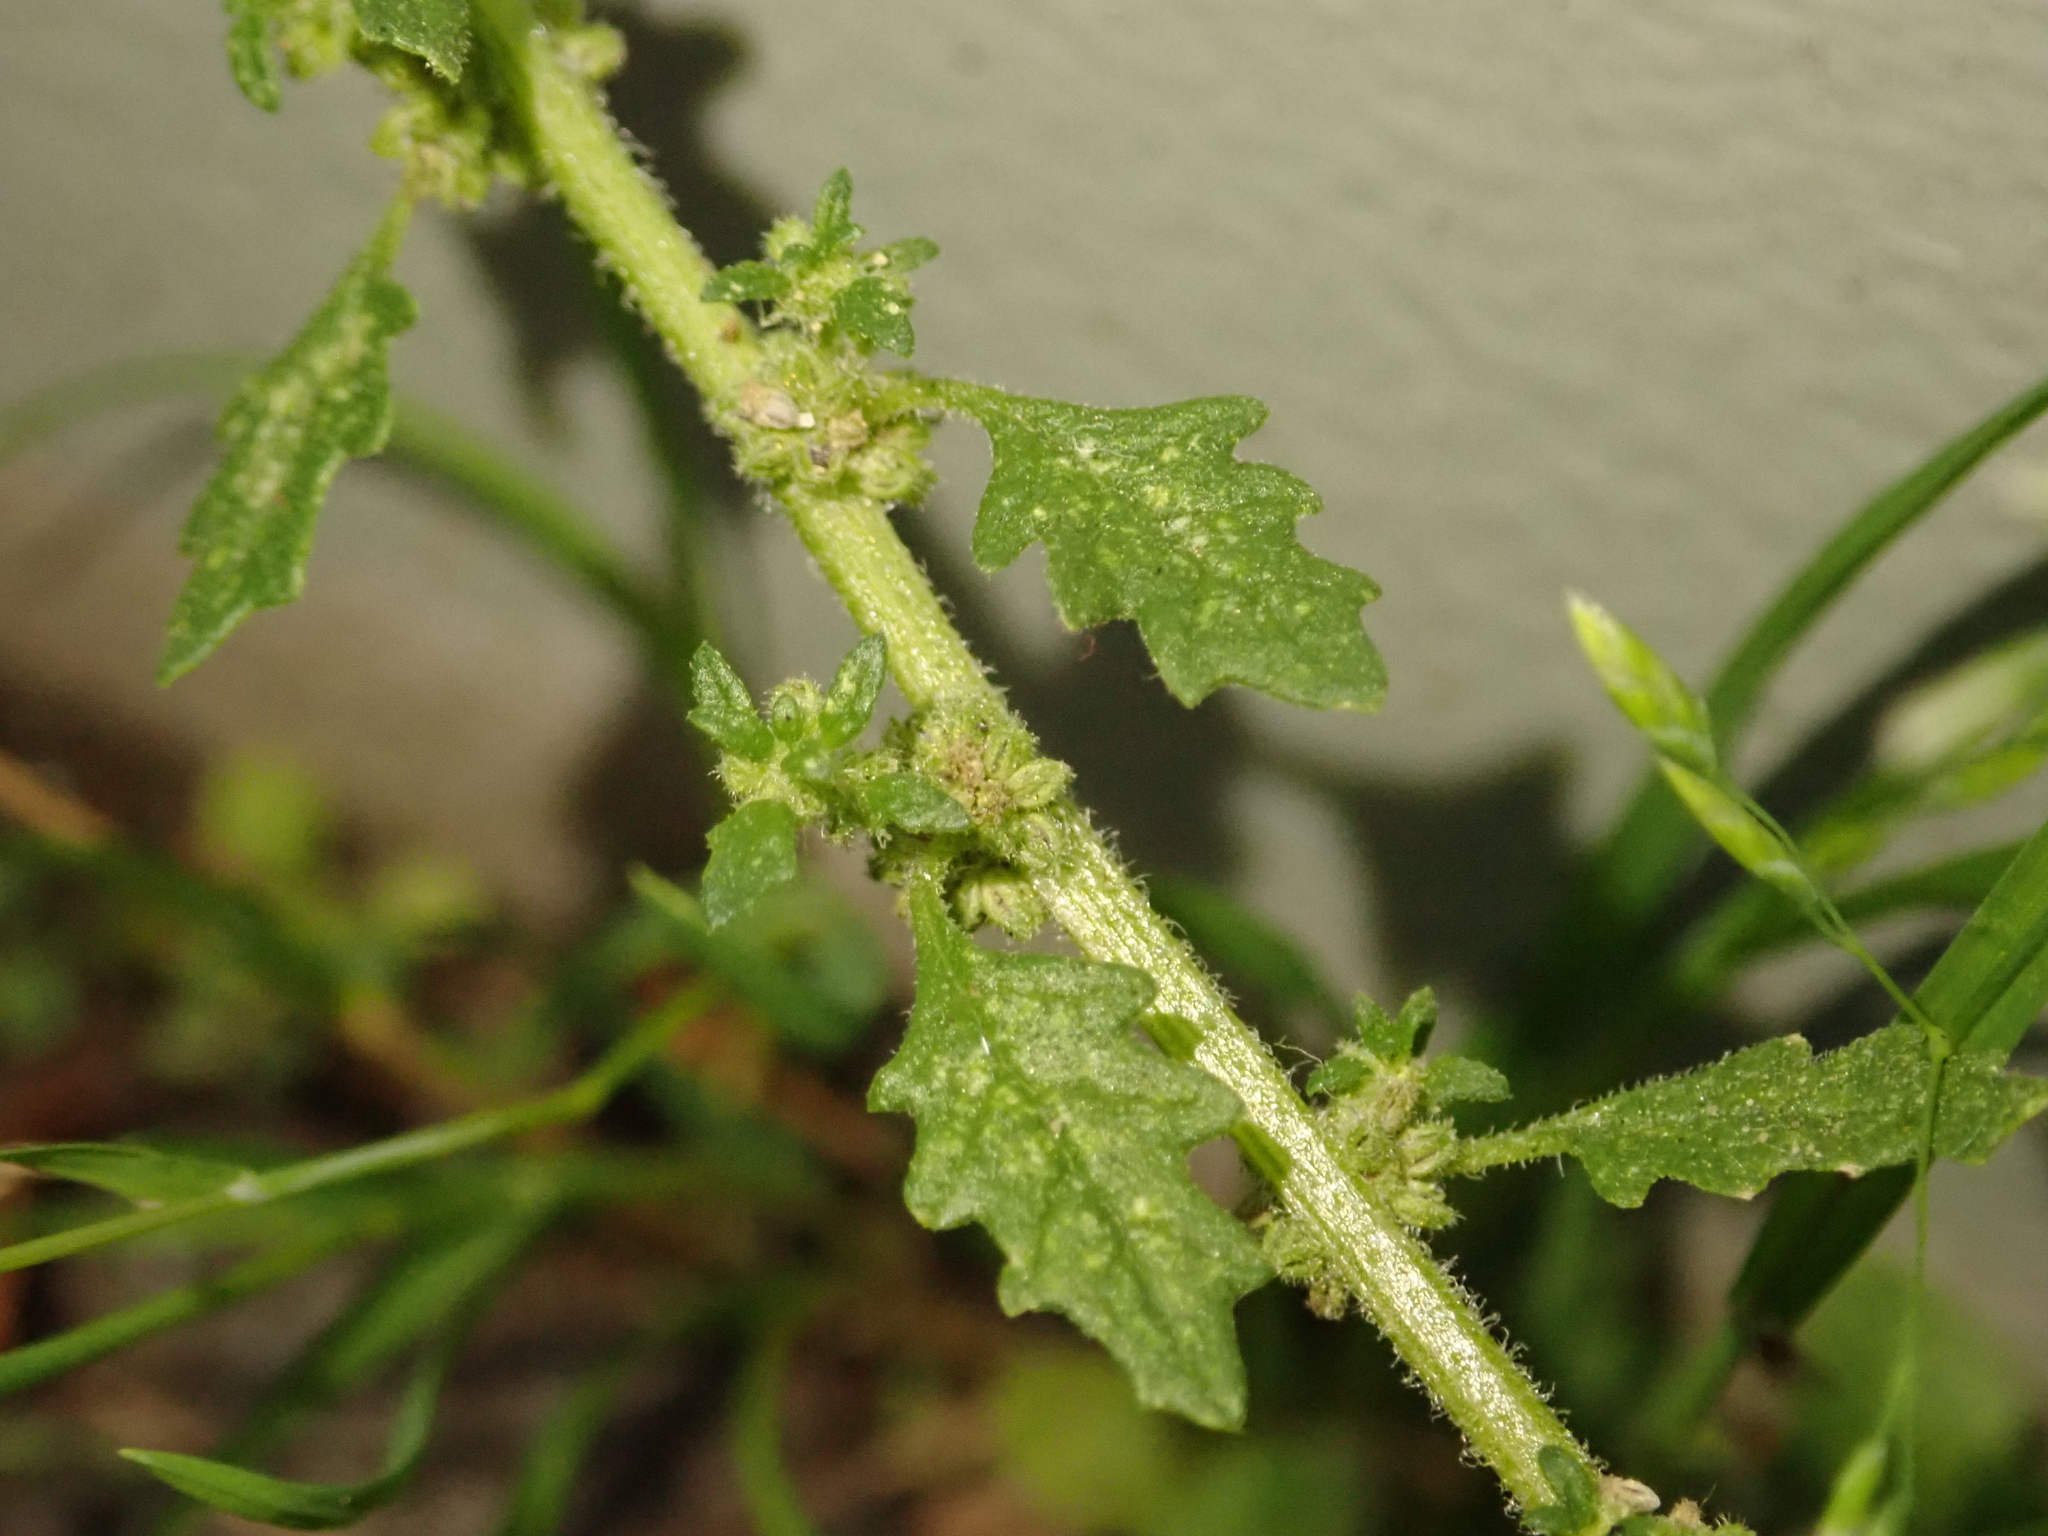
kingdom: Plantae
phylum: Tracheophyta
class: Magnoliopsida
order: Caryophyllales
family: Amaranthaceae
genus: Dysphania
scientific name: Dysphania pumilio
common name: Clammy goosefoot
